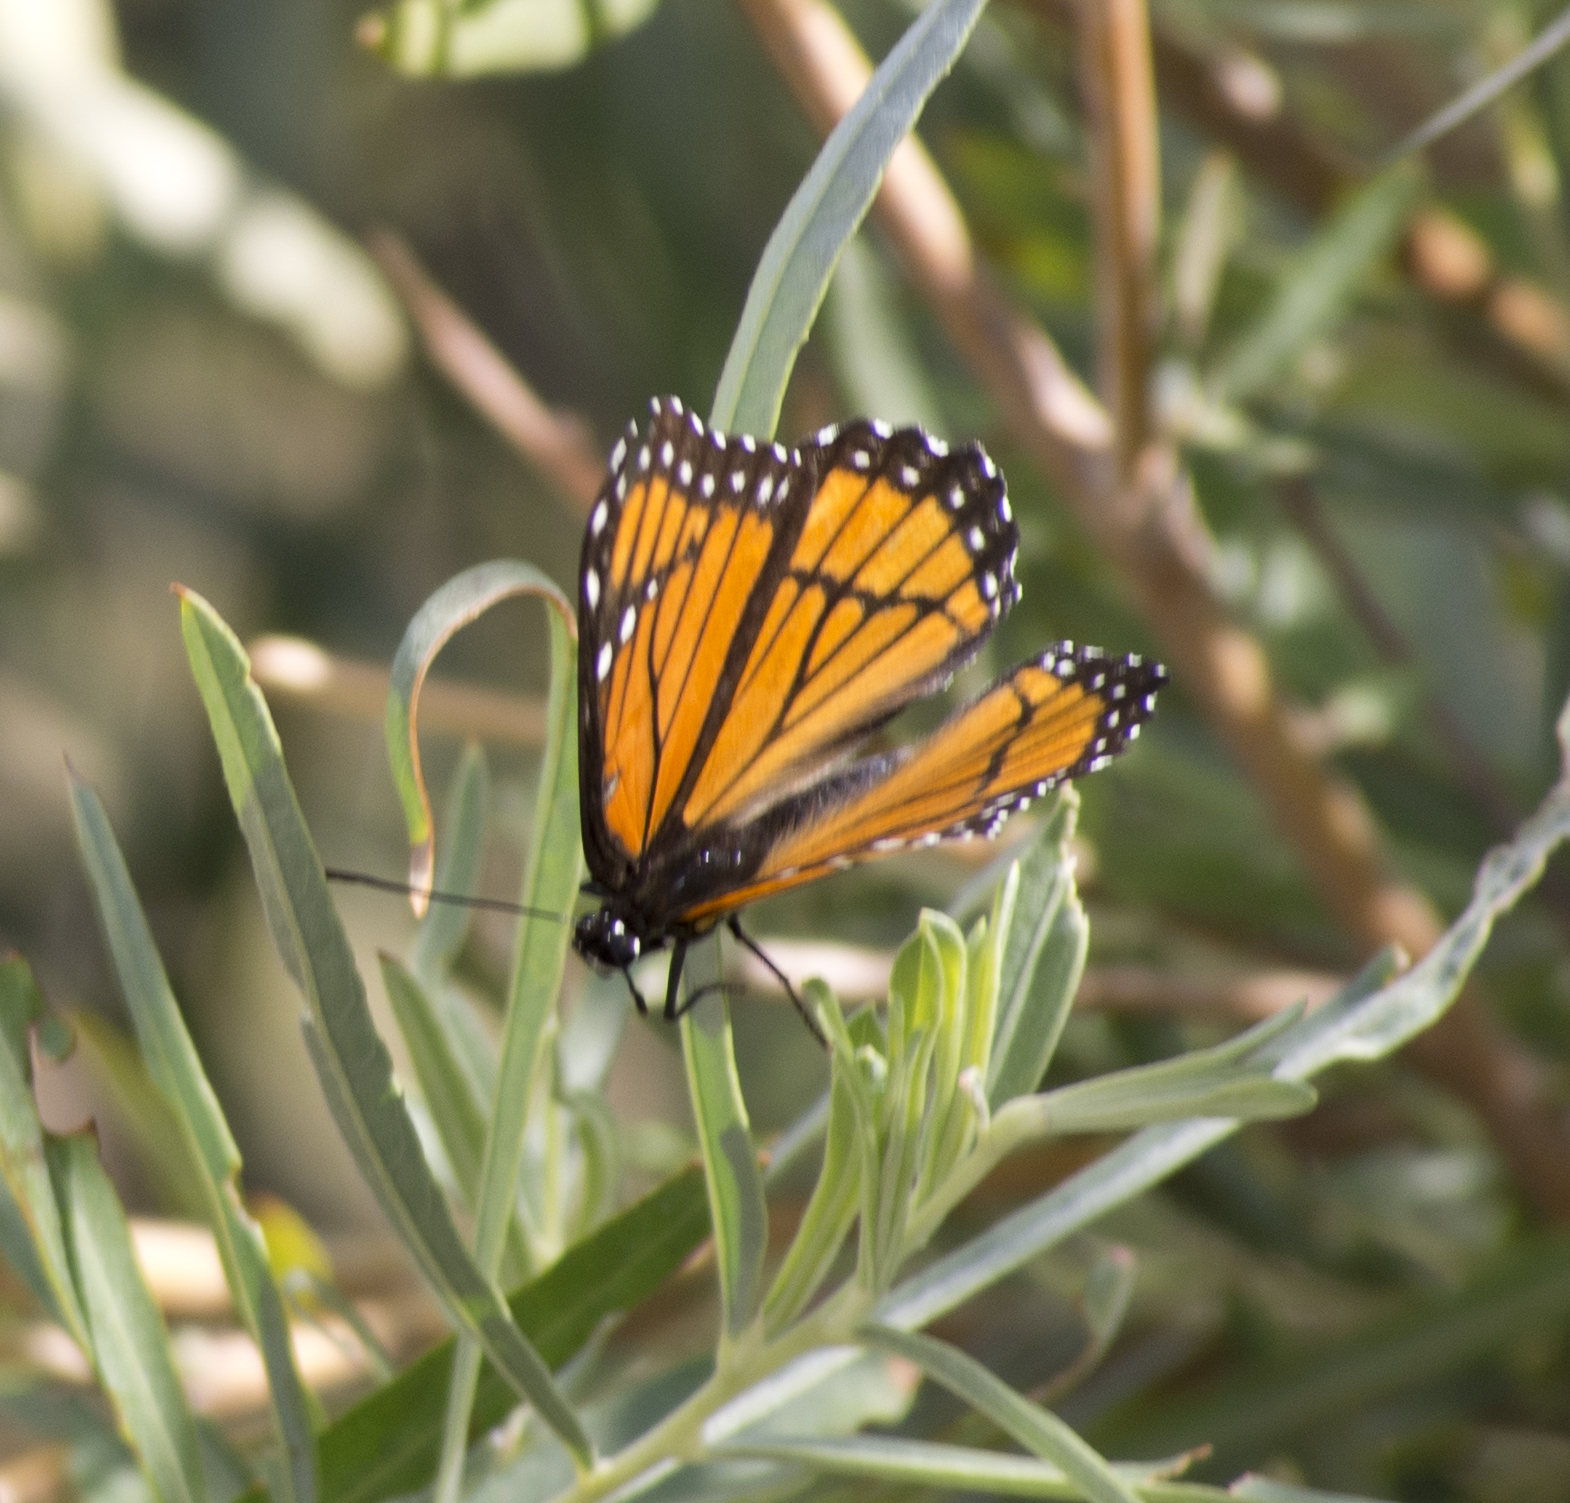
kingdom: Animalia
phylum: Arthropoda
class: Insecta
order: Lepidoptera
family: Nymphalidae
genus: Limenitis
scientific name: Limenitis archippus
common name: Viceroy
